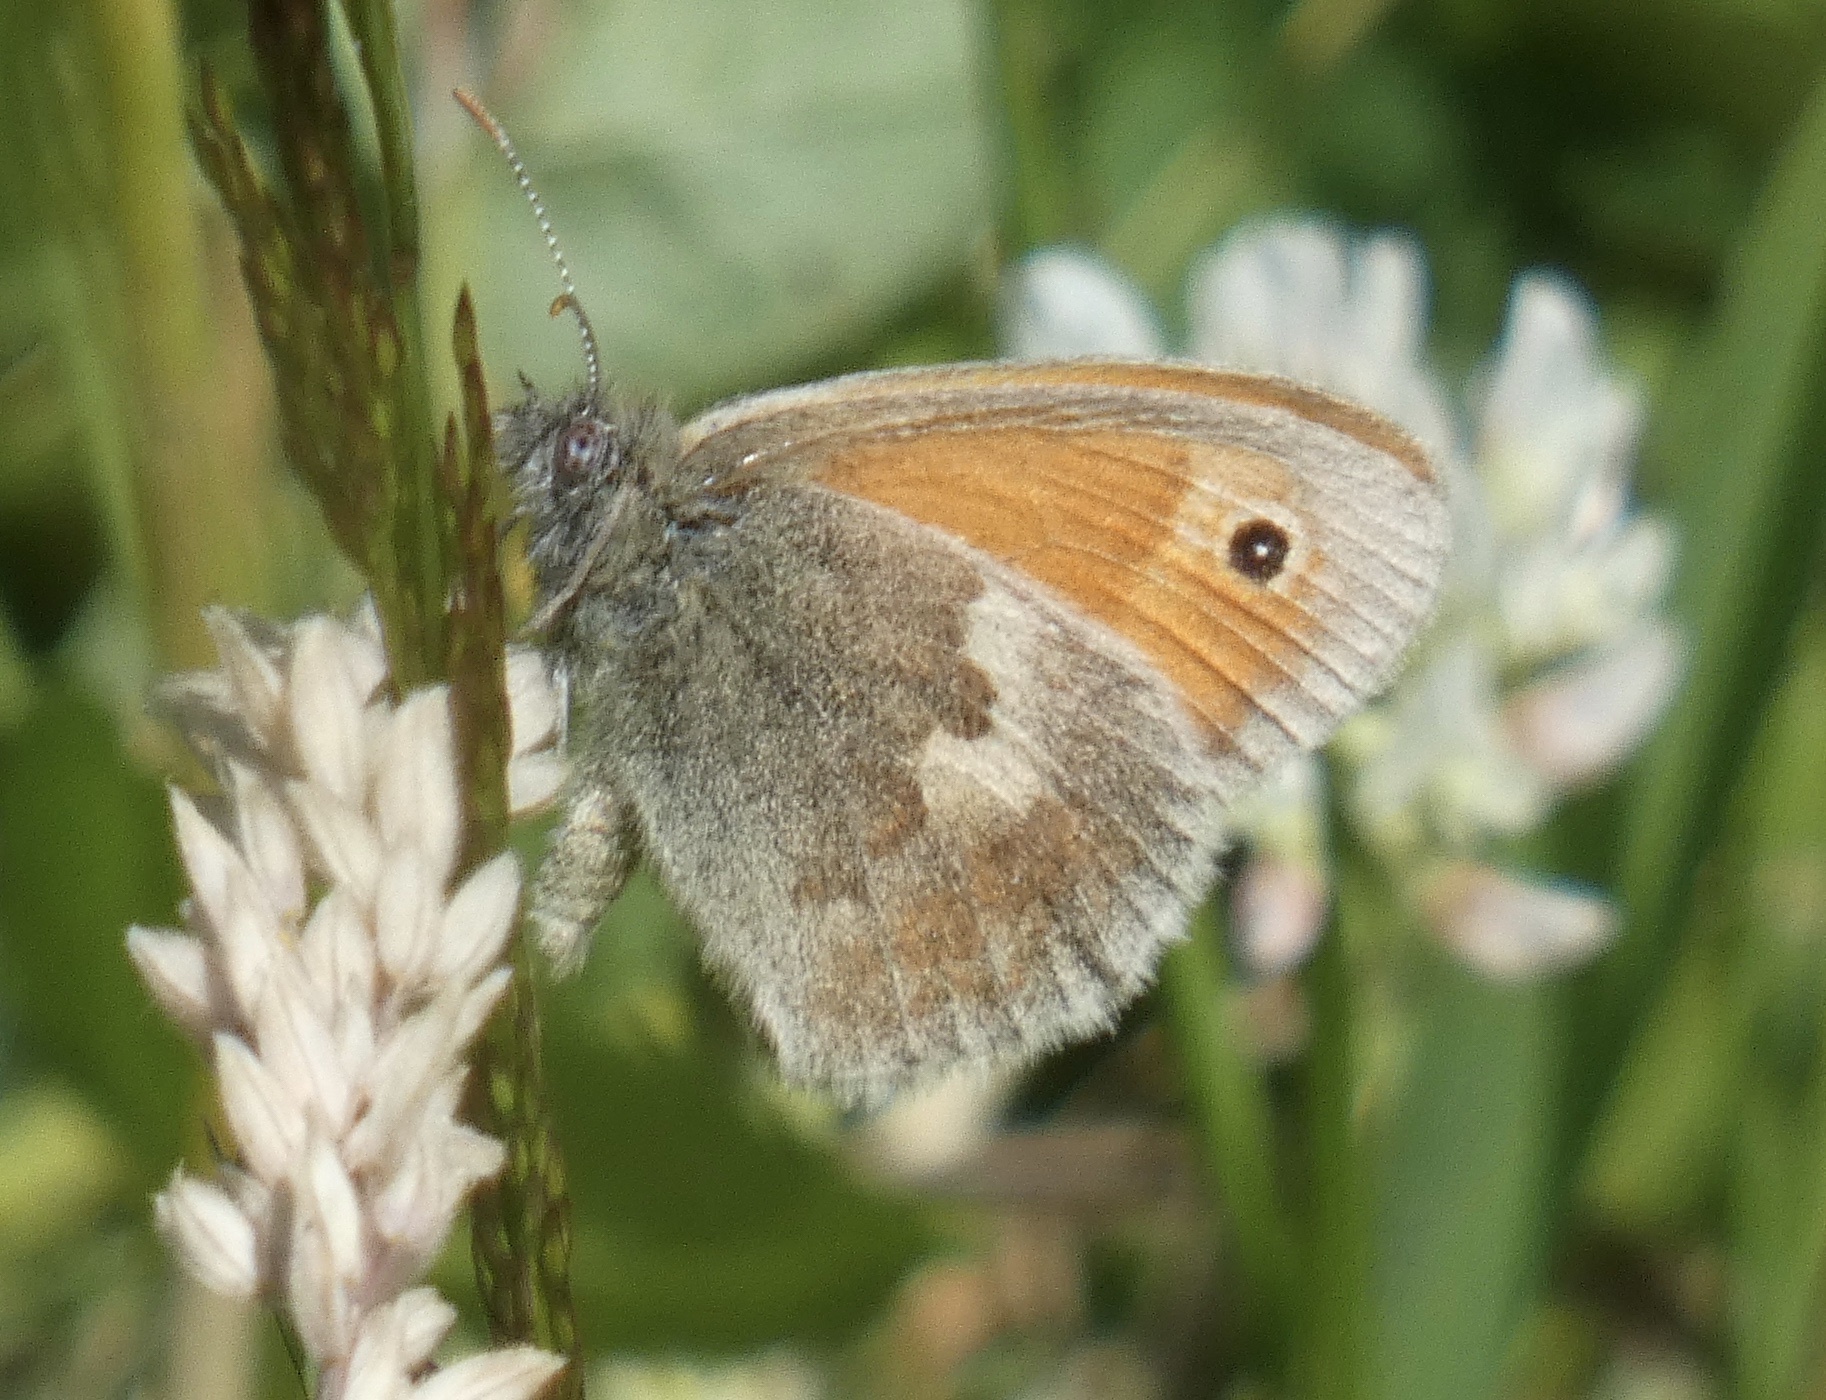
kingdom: Animalia
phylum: Arthropoda
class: Insecta
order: Lepidoptera
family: Nymphalidae
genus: Coenonympha
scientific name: Coenonympha pamphilus
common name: Small heath
